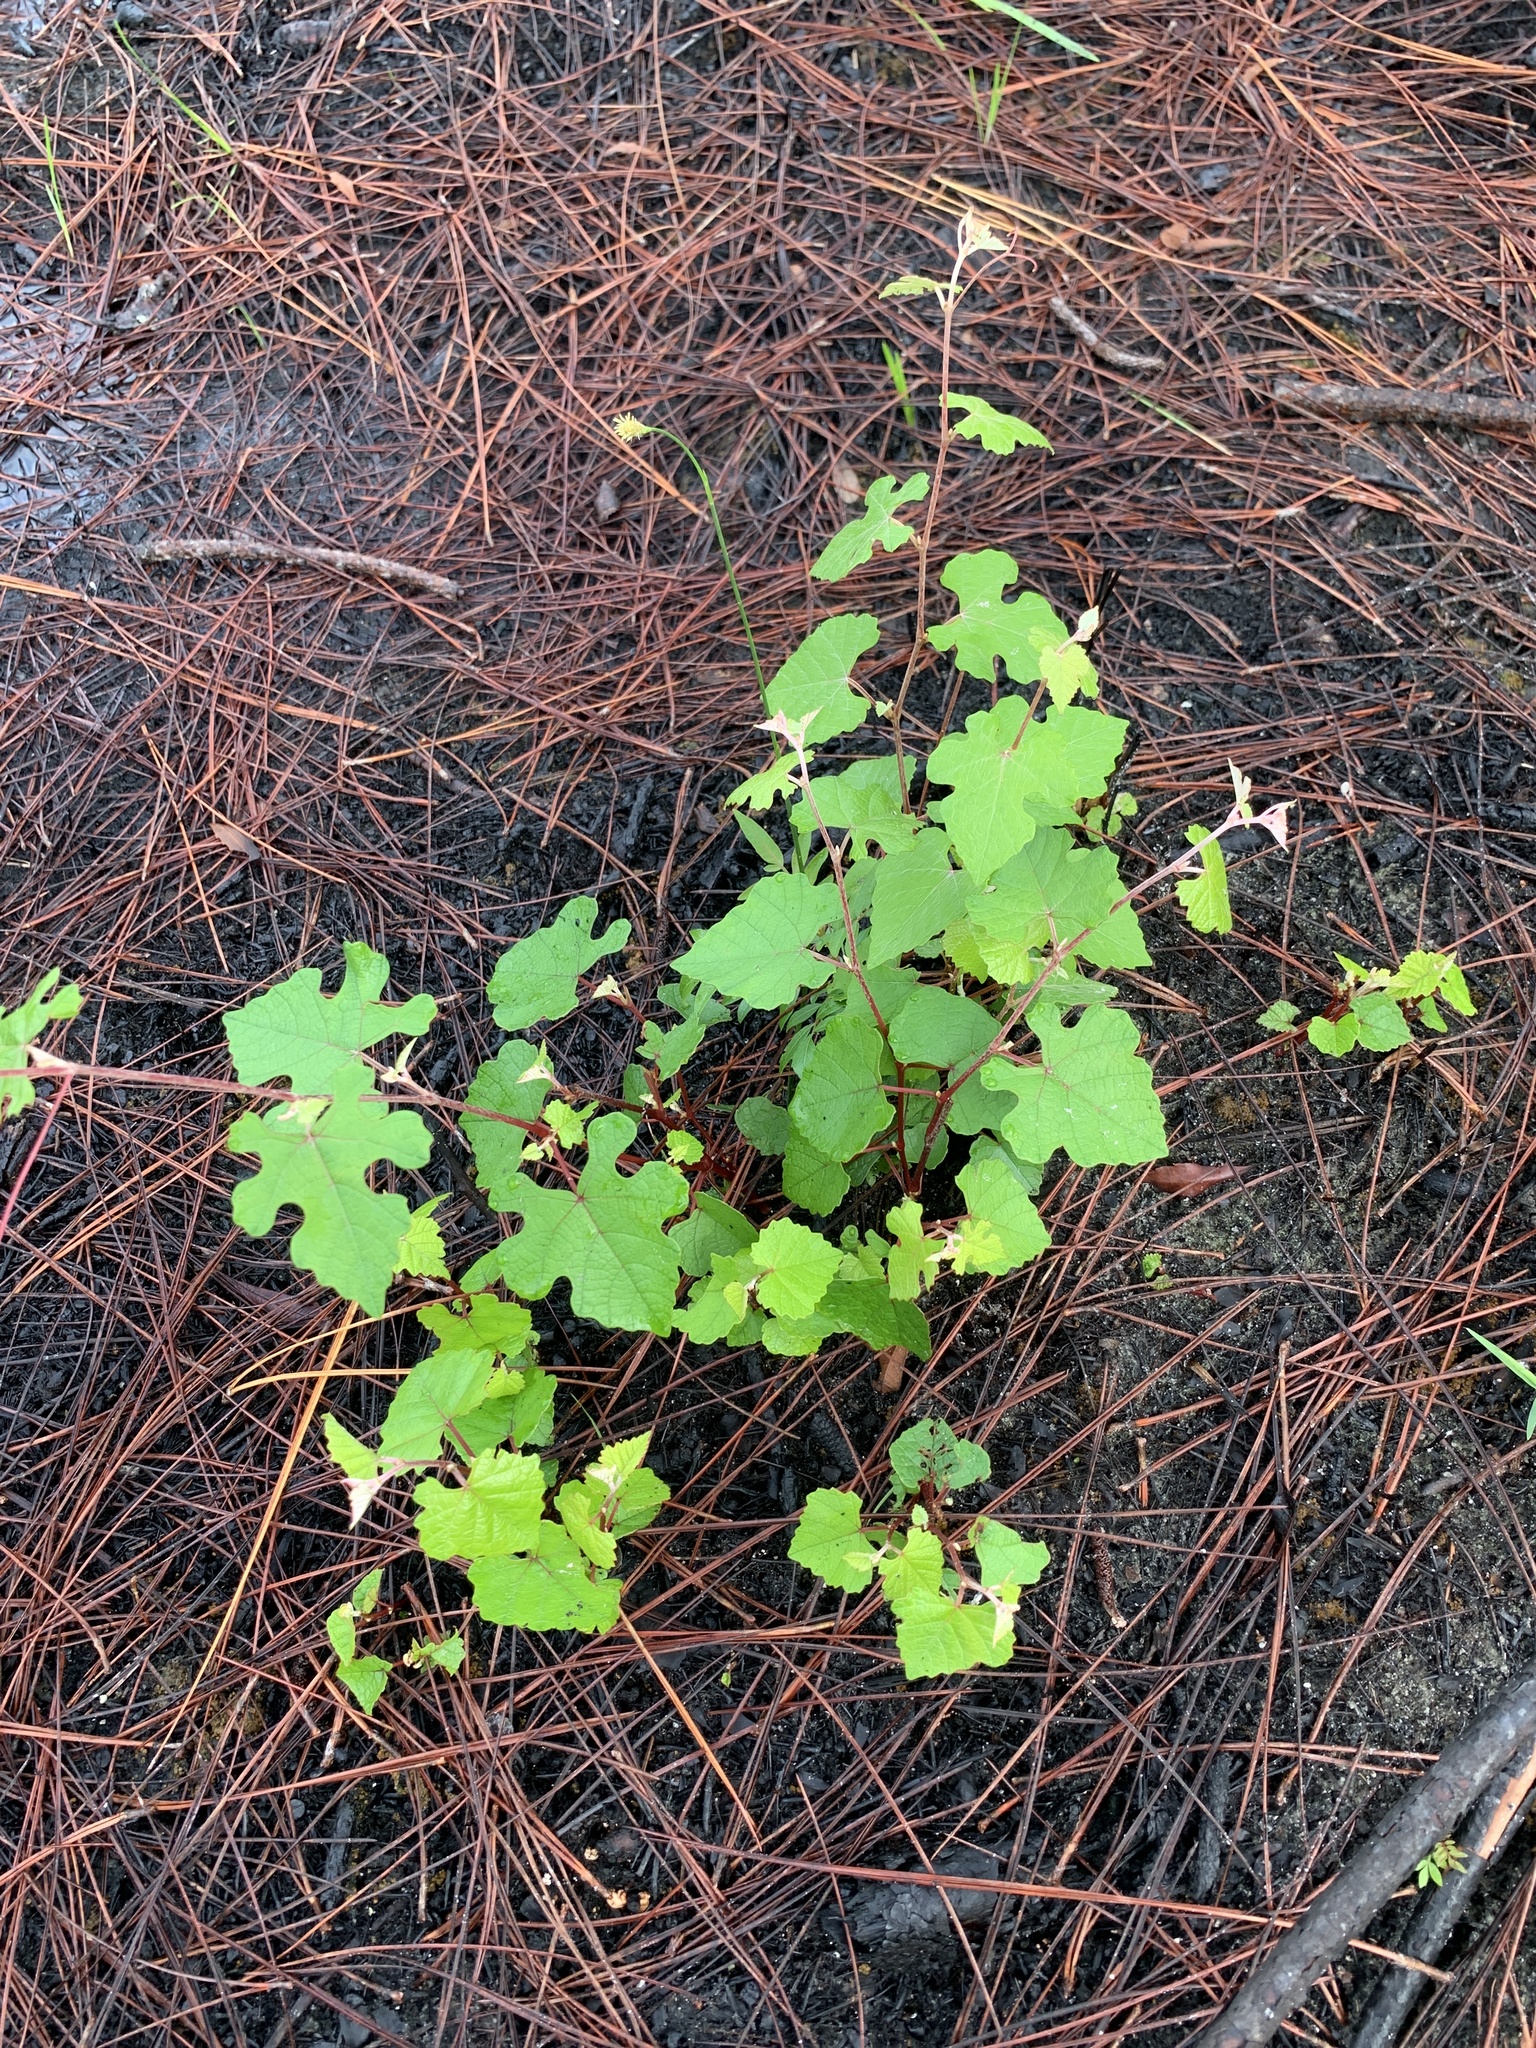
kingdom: Plantae
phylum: Tracheophyta
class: Magnoliopsida
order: Vitales
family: Vitaceae
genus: Vitis
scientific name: Vitis aestivalis
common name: Pigeon grape
